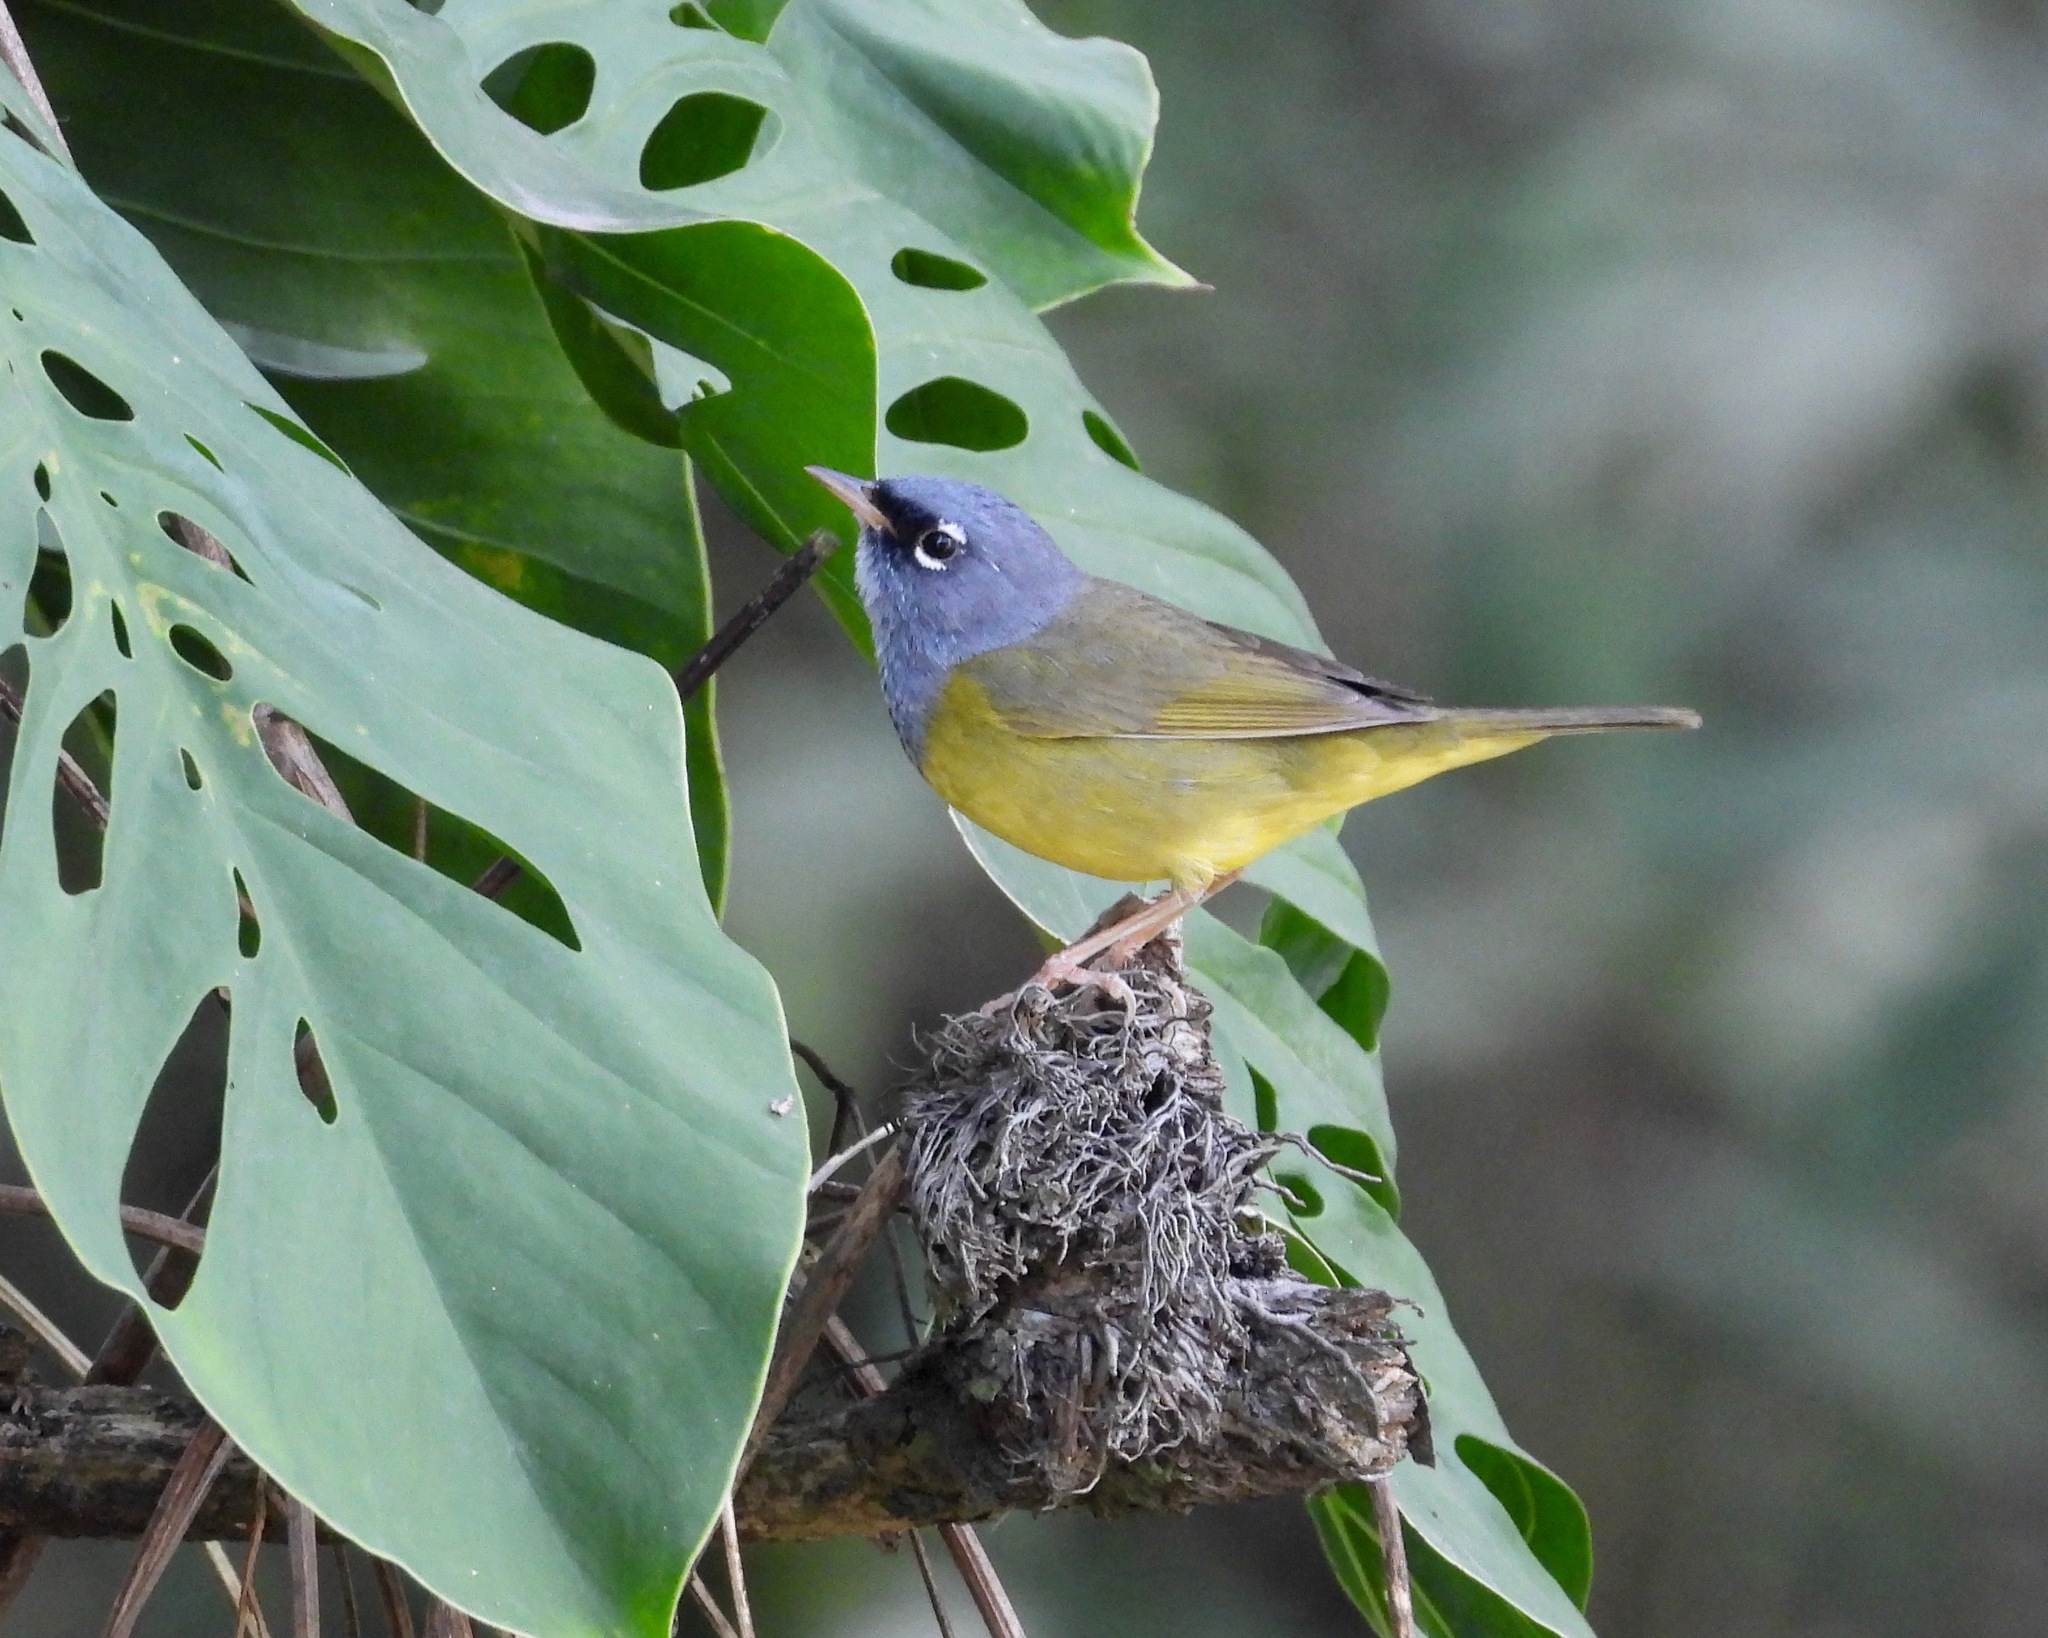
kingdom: Animalia
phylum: Chordata
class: Aves
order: Passeriformes
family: Parulidae
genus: Geothlypis
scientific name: Geothlypis tolmiei
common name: Macgillivray's warbler
